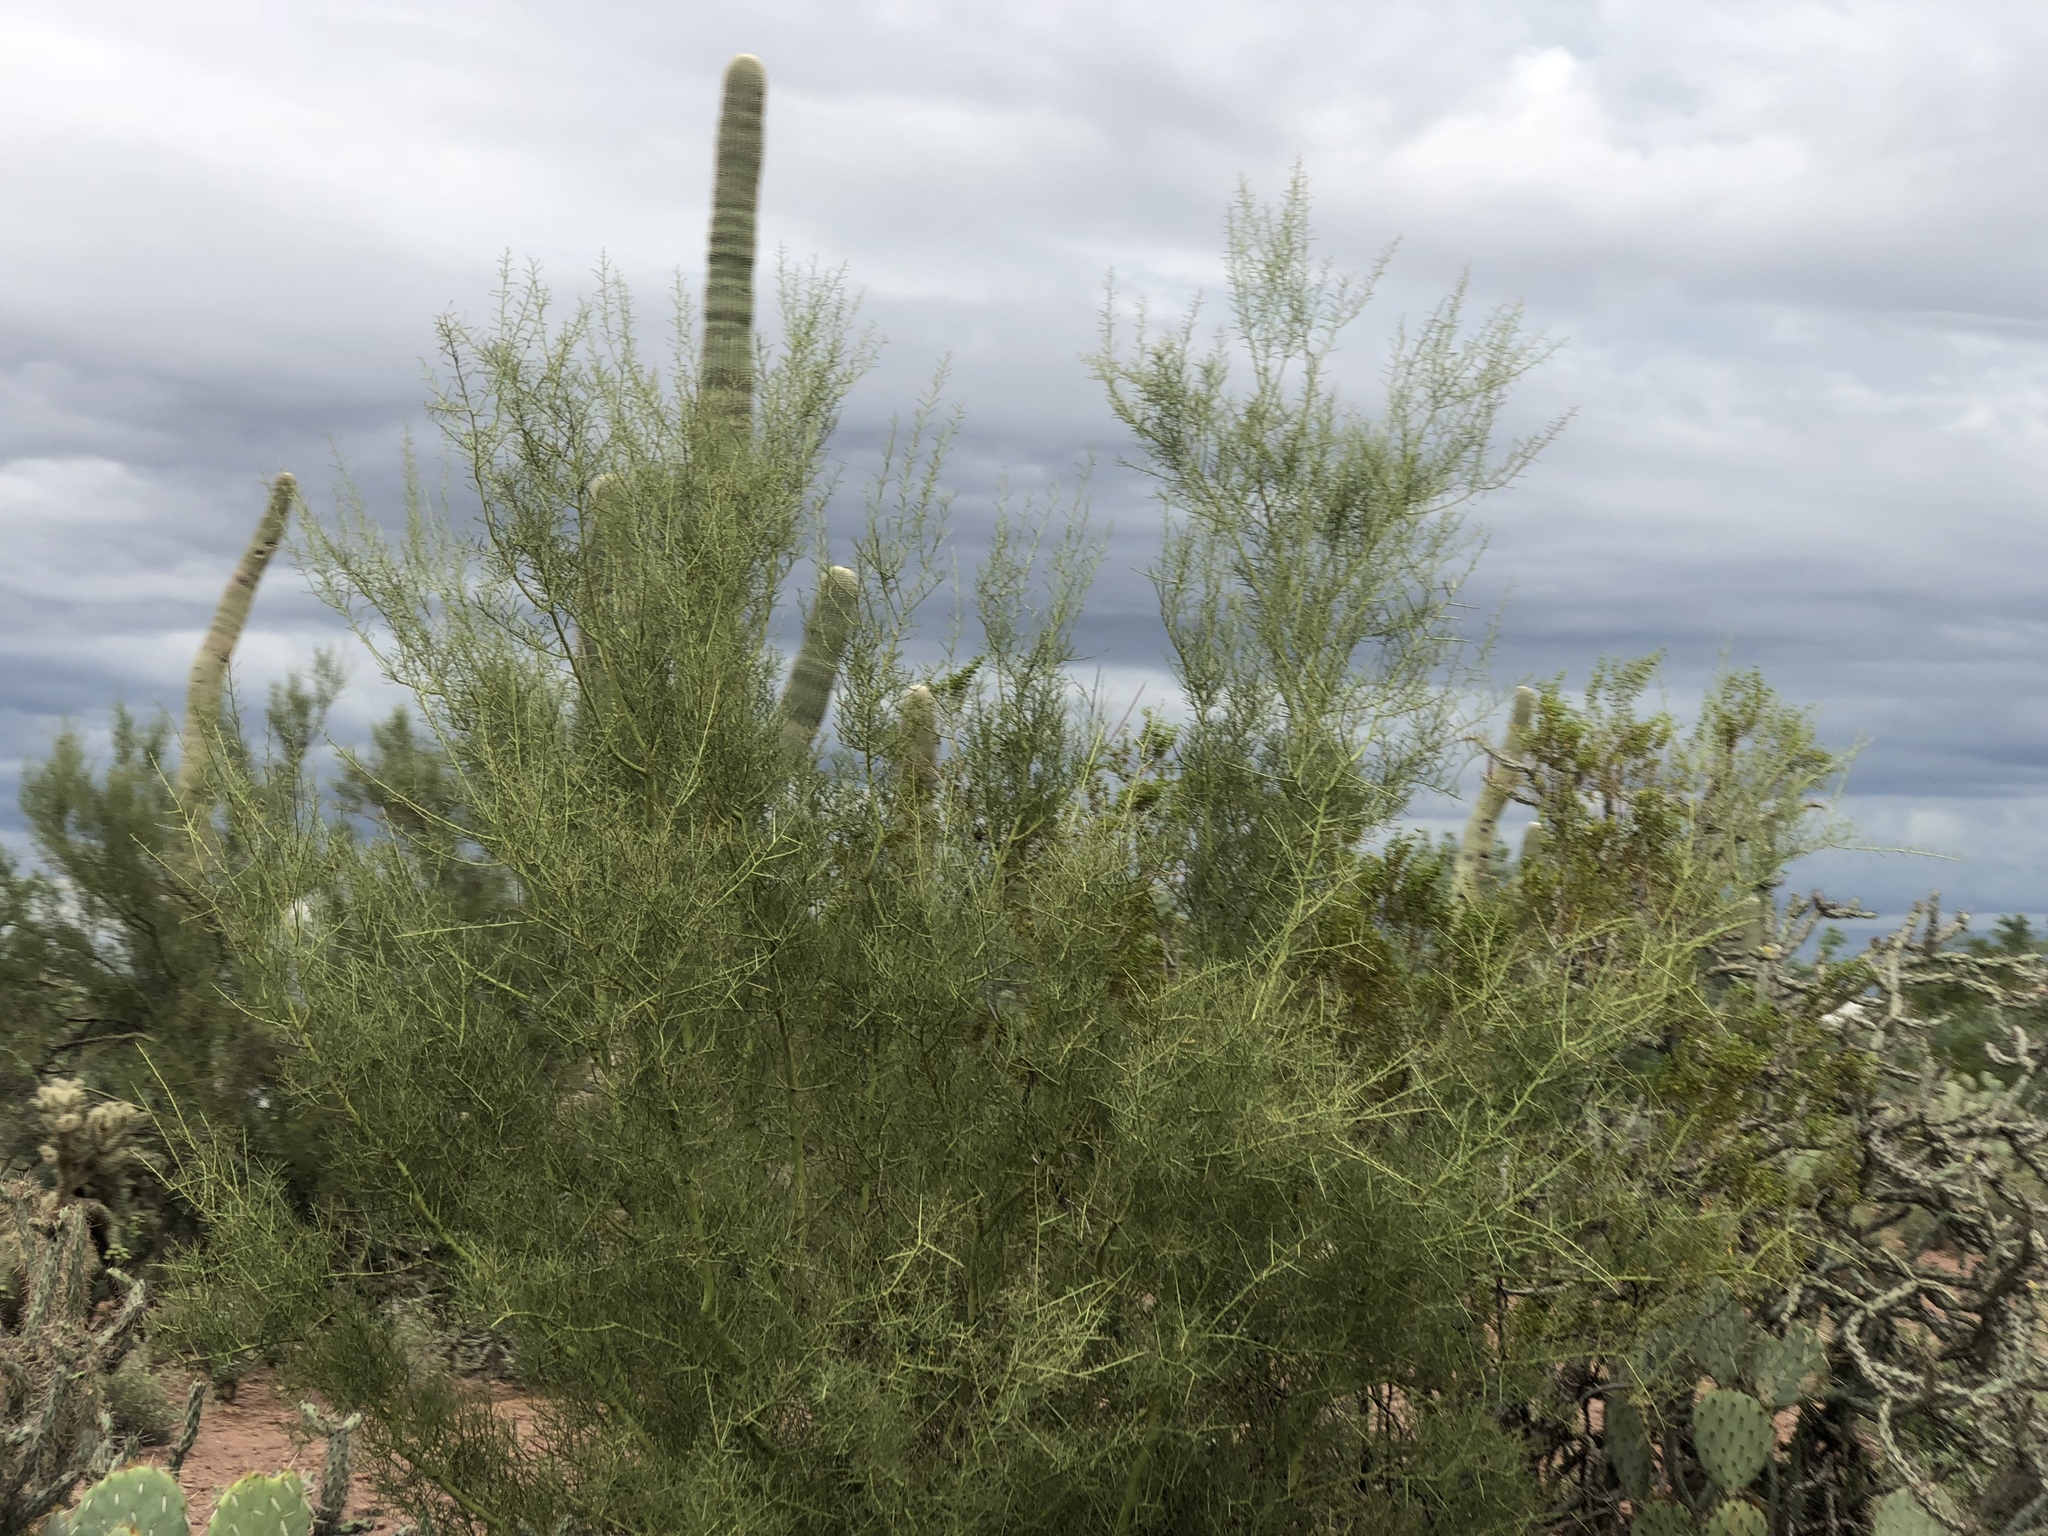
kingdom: Plantae
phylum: Tracheophyta
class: Magnoliopsida
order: Fabales
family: Fabaceae
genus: Parkinsonia
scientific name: Parkinsonia microphylla
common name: Yellow paloverde
